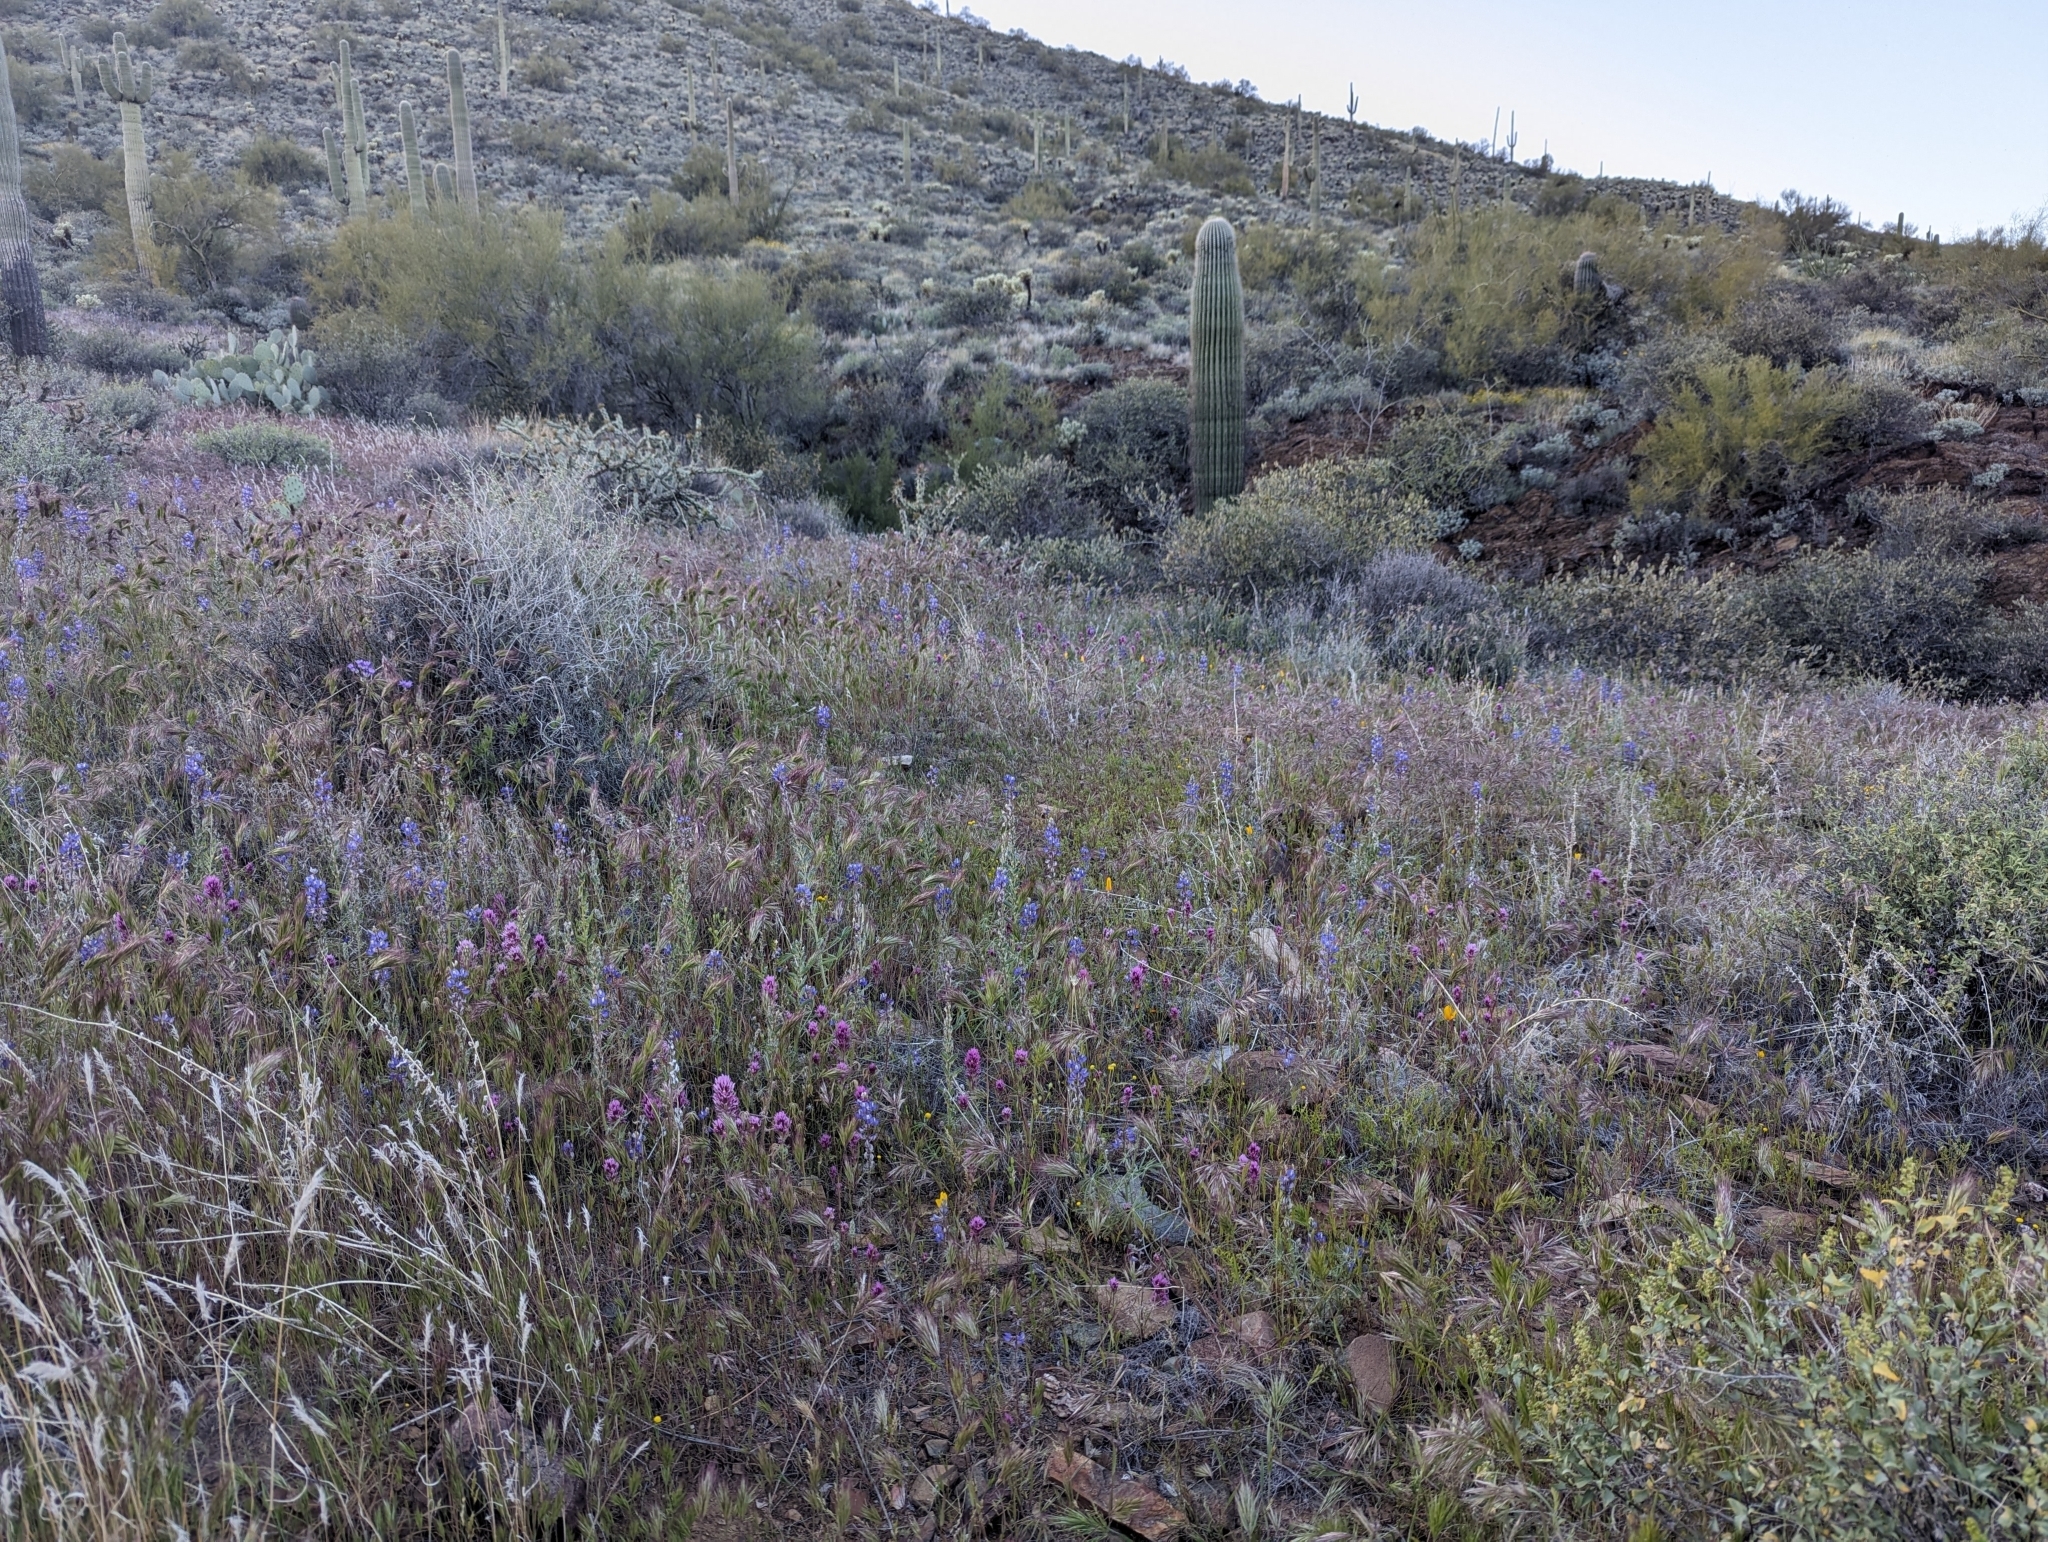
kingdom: Plantae
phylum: Tracheophyta
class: Magnoliopsida
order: Lamiales
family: Orobanchaceae
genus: Castilleja
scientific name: Castilleja exserta
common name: Purple owl-clover
